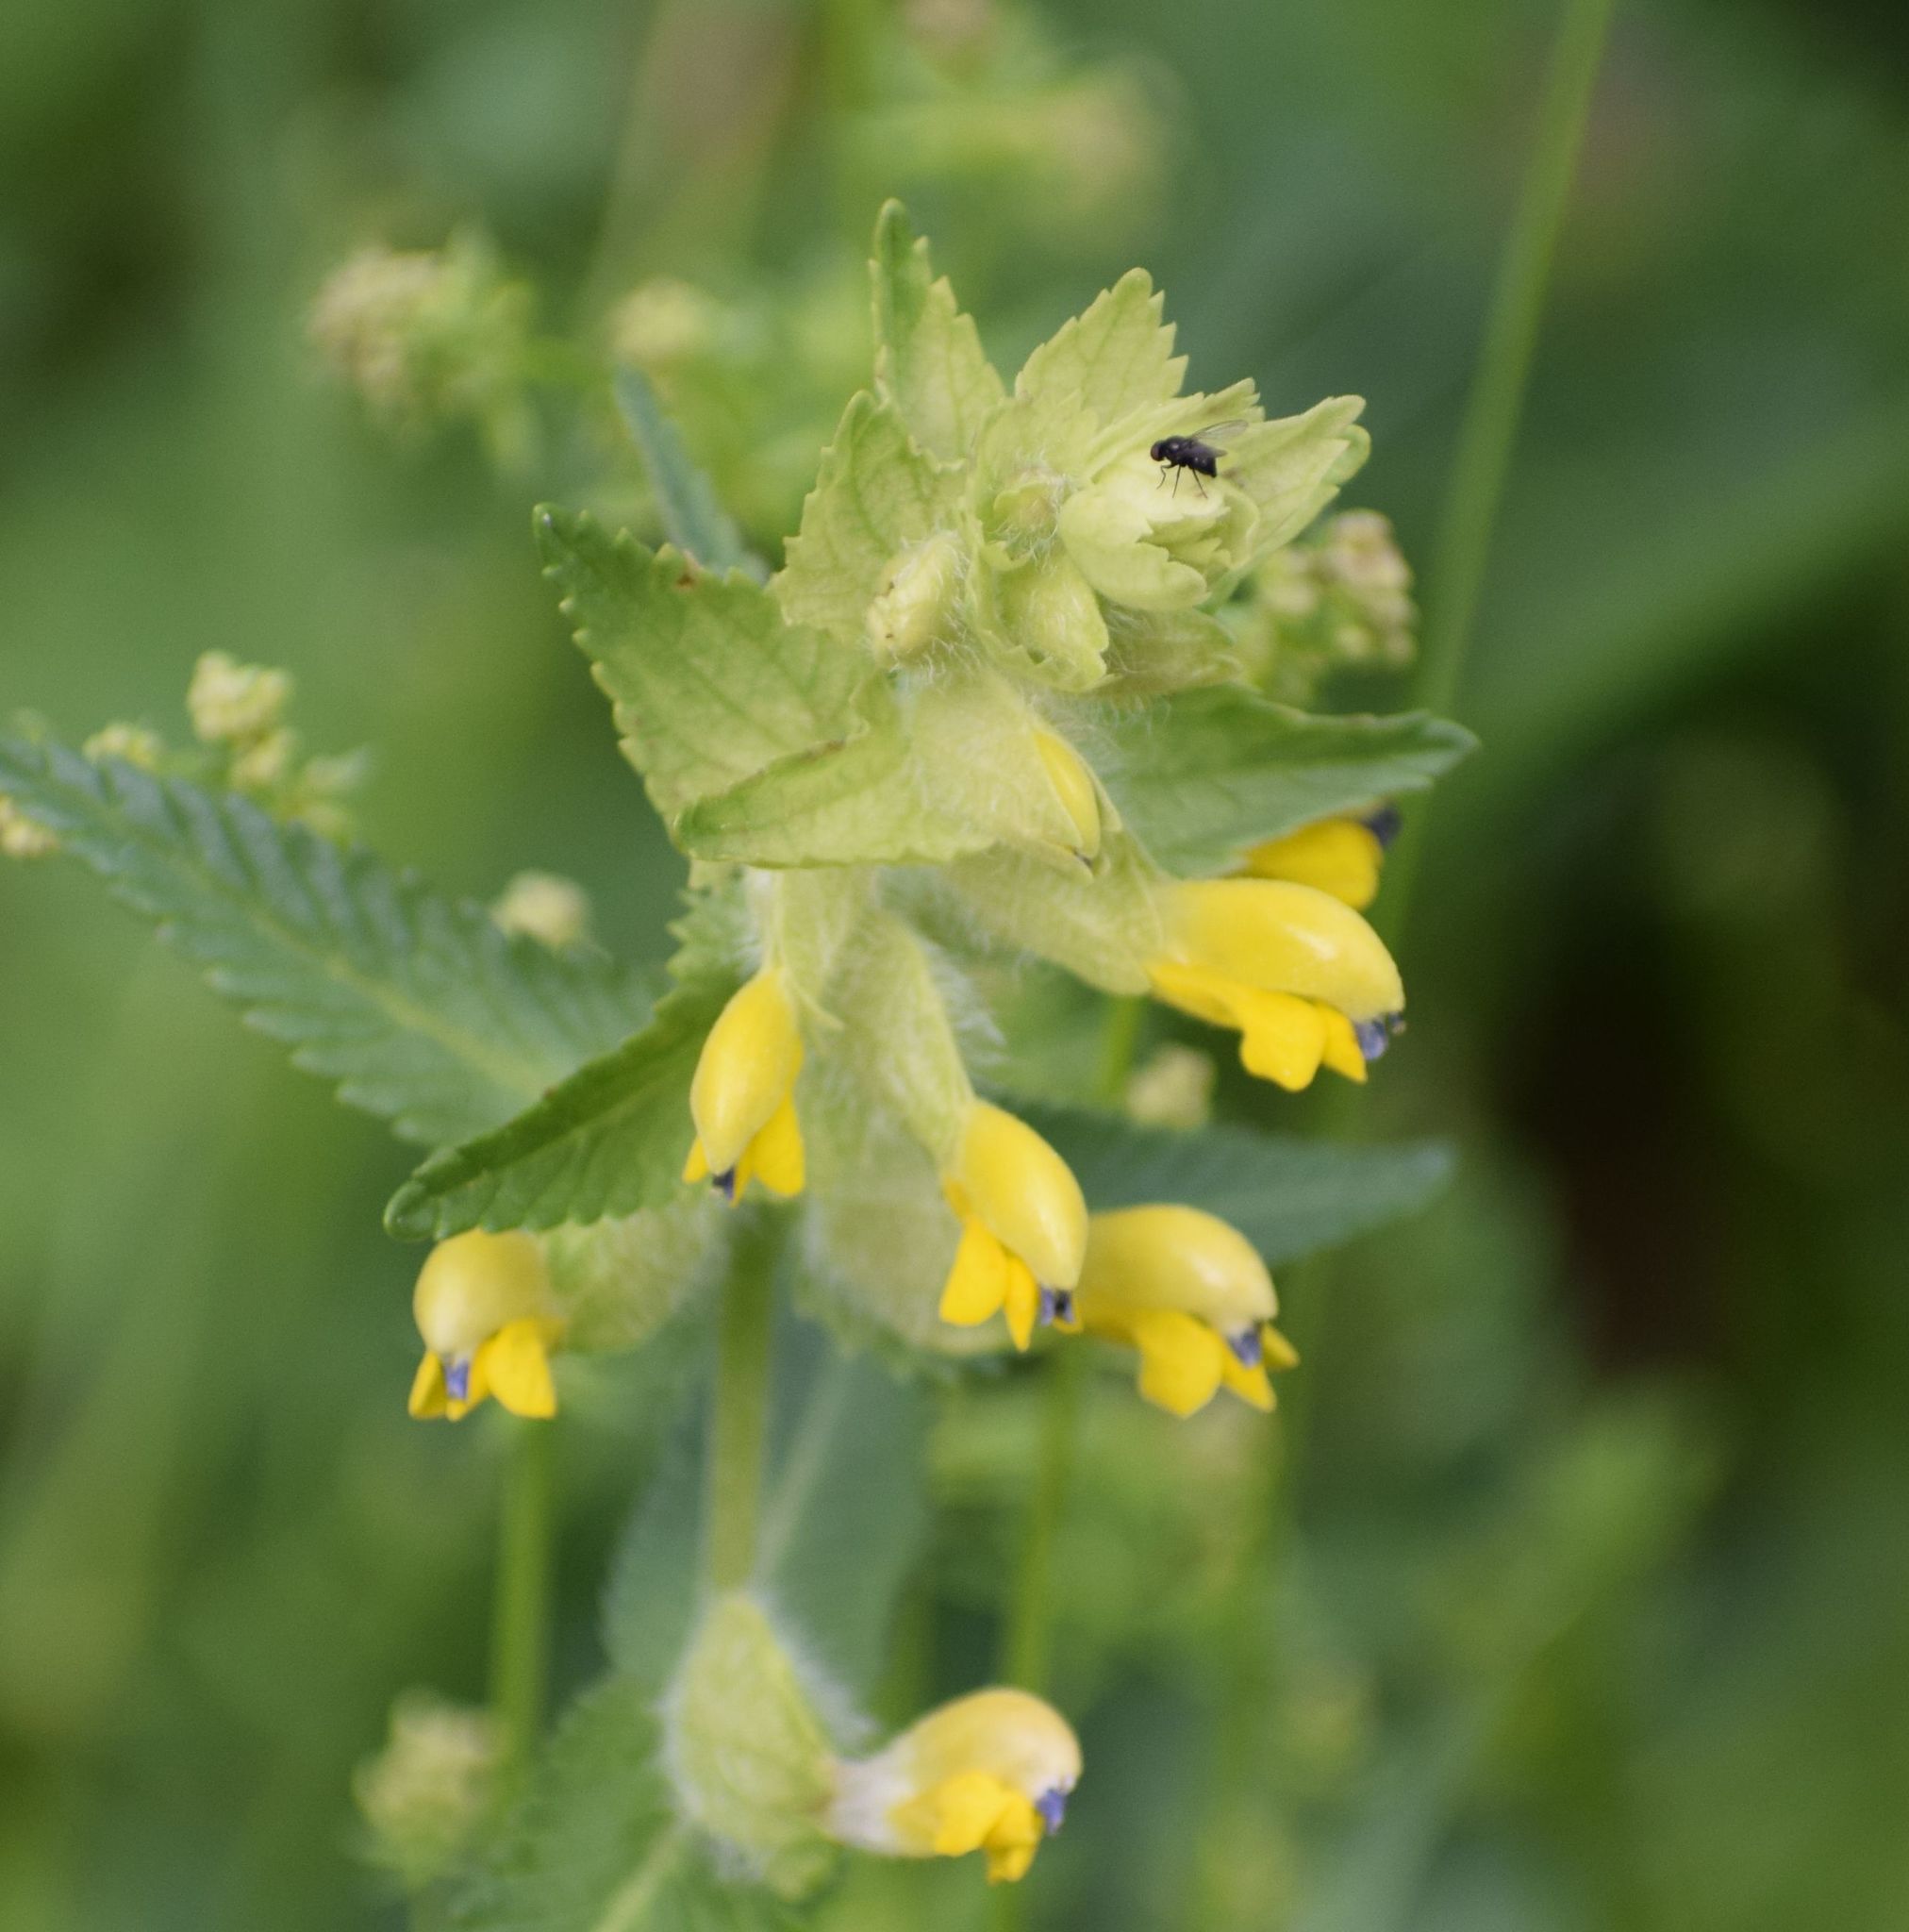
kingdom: Plantae
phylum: Tracheophyta
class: Magnoliopsida
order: Lamiales
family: Orobanchaceae
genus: Rhinanthus
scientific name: Rhinanthus alectorolophus
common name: Greater yellow-rattle
